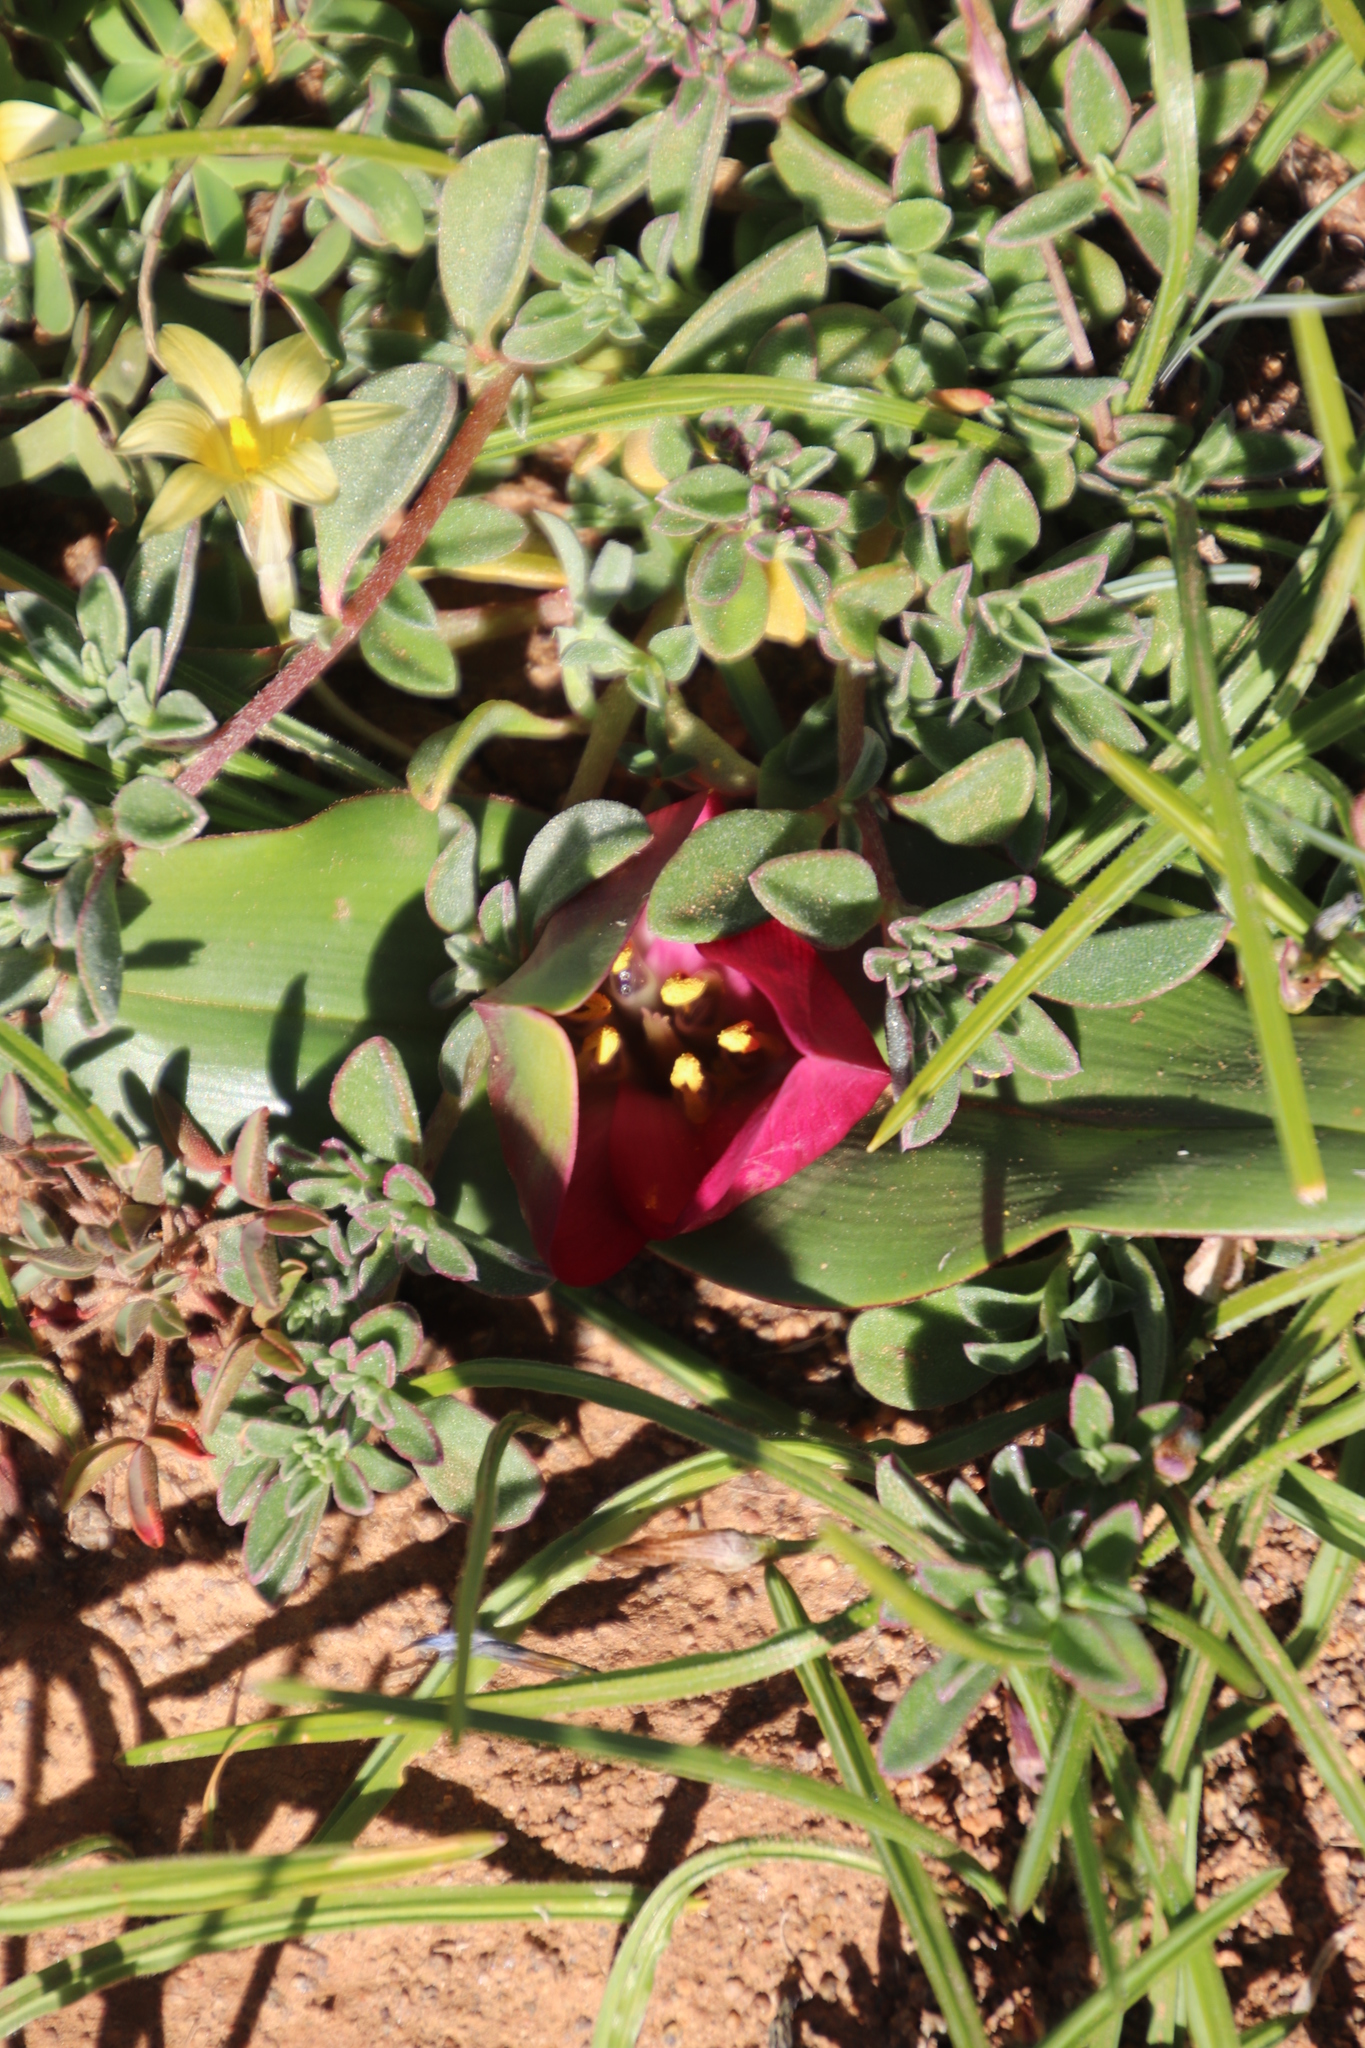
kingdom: Plantae
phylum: Tracheophyta
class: Liliopsida
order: Liliales
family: Colchicaceae
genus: Colchicum
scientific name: Colchicum burchellii
